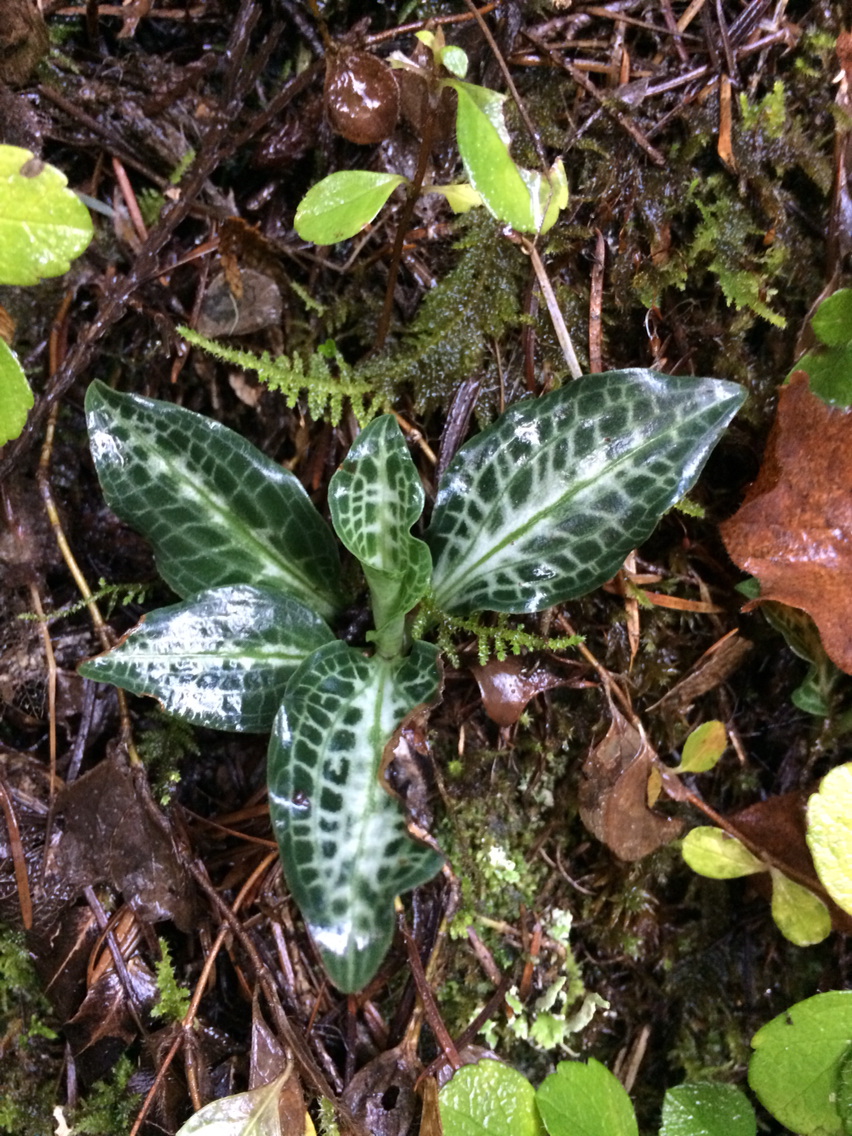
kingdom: Plantae
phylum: Tracheophyta
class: Liliopsida
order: Asparagales
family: Orchidaceae
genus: Goodyera
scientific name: Goodyera oblongifolia
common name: Giant rattlesnake-plantain
